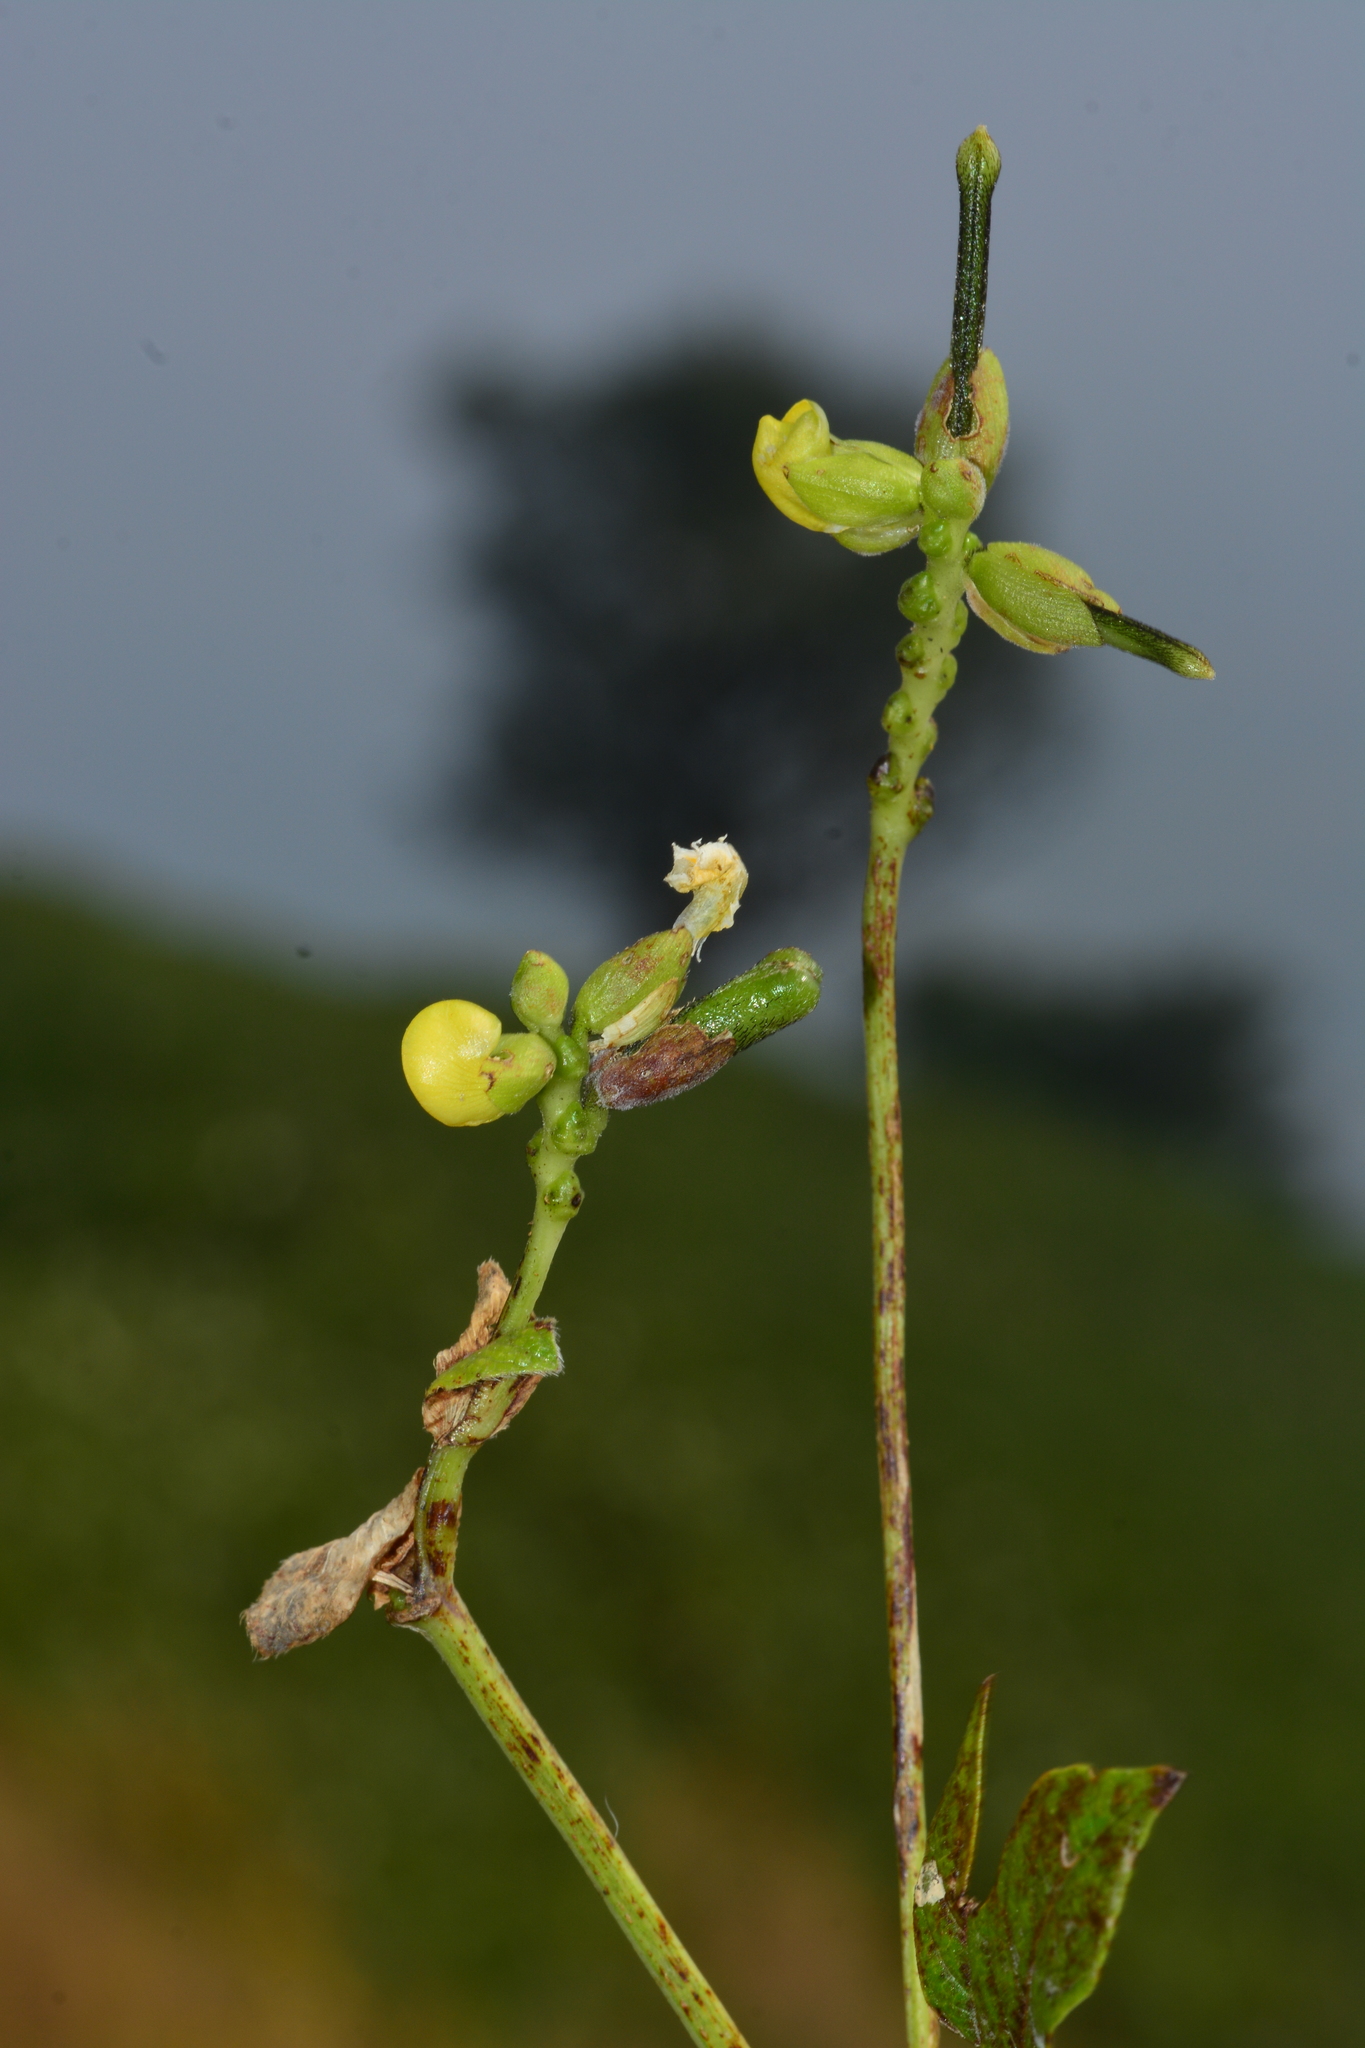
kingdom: Plantae
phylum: Tracheophyta
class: Magnoliopsida
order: Fabales
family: Fabaceae
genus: Vigna
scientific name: Vigna khandalensis
